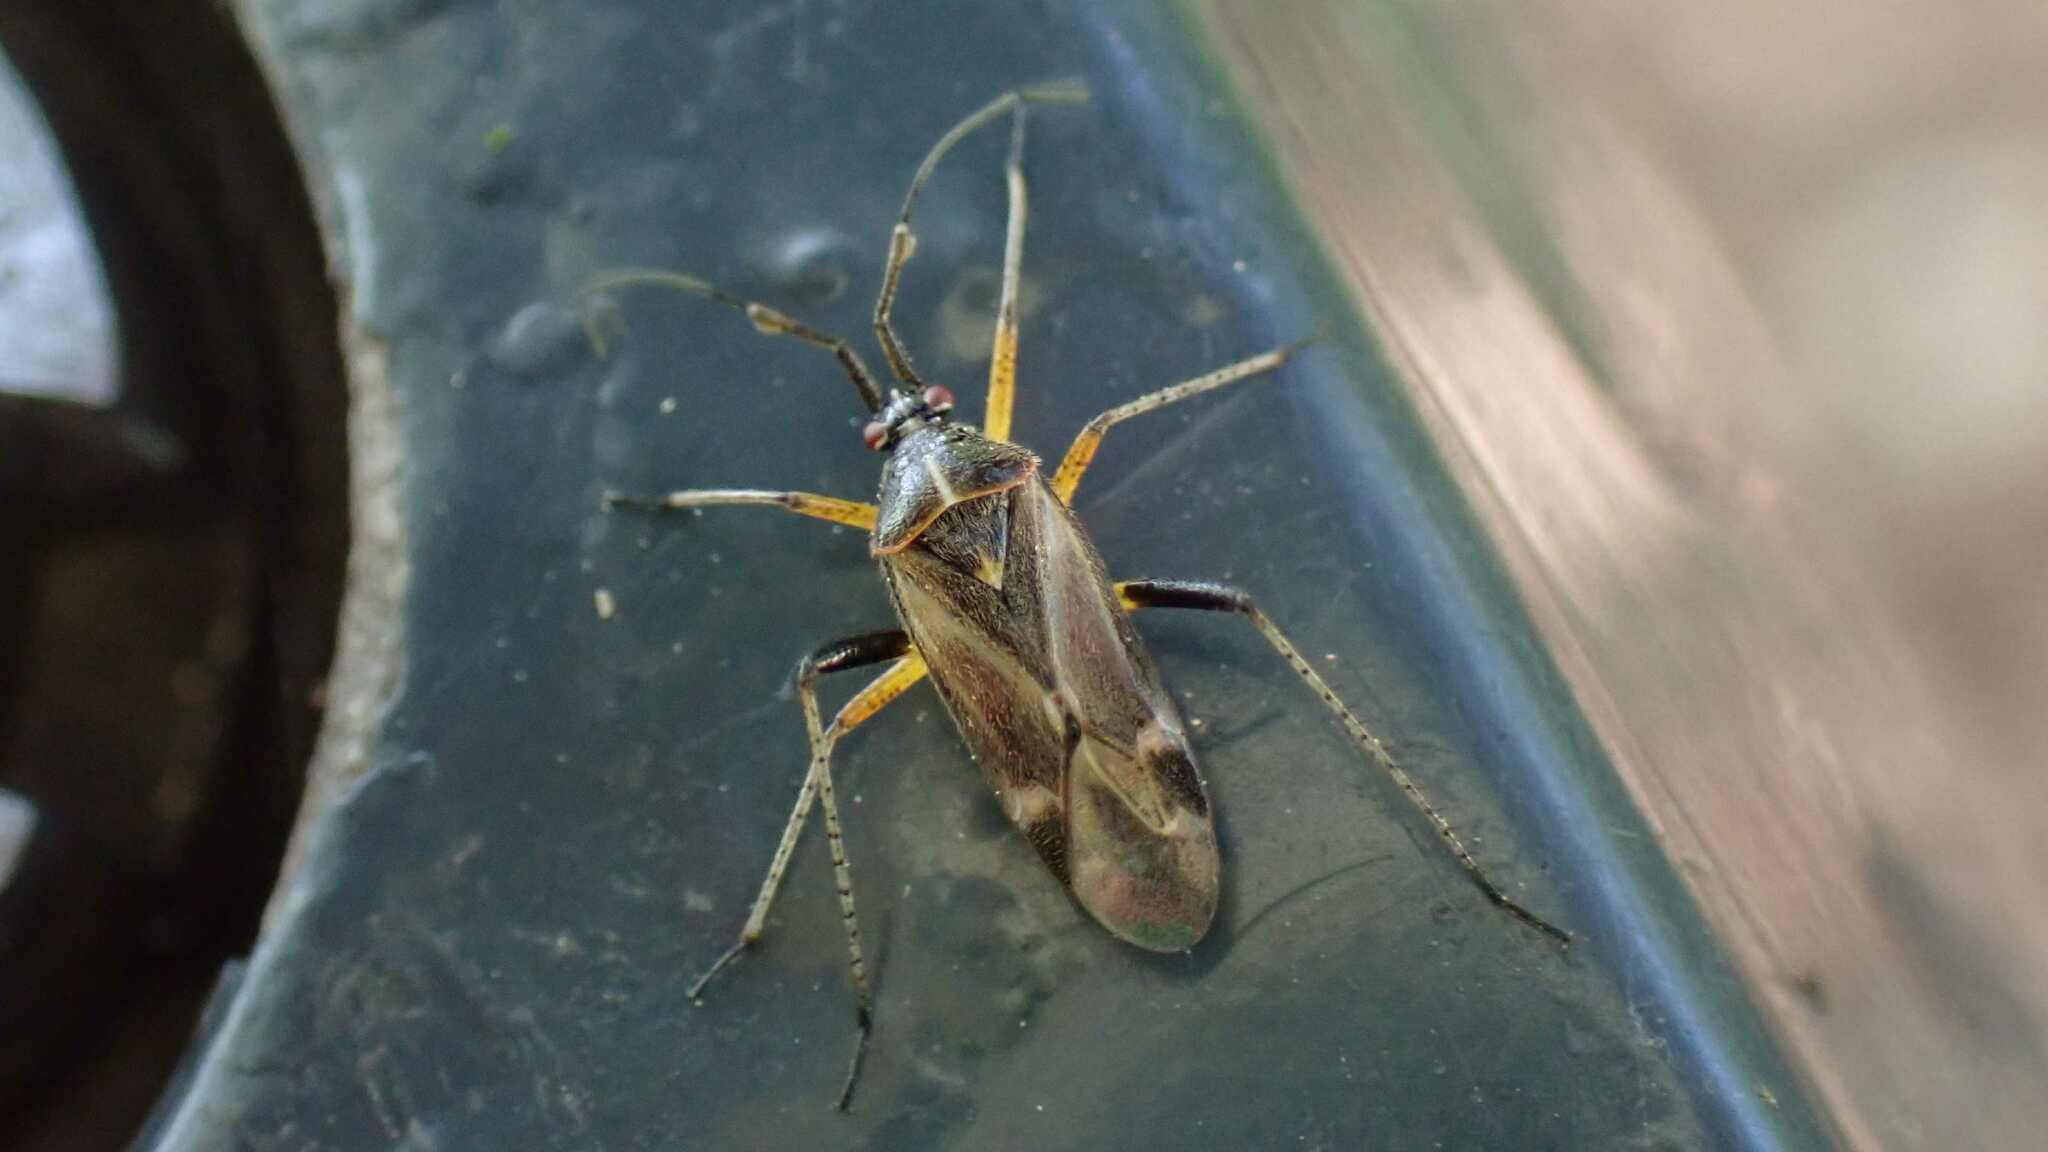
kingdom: Animalia
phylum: Arthropoda
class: Insecta
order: Hemiptera
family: Miridae
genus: Harpocera
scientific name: Harpocera thoracica
